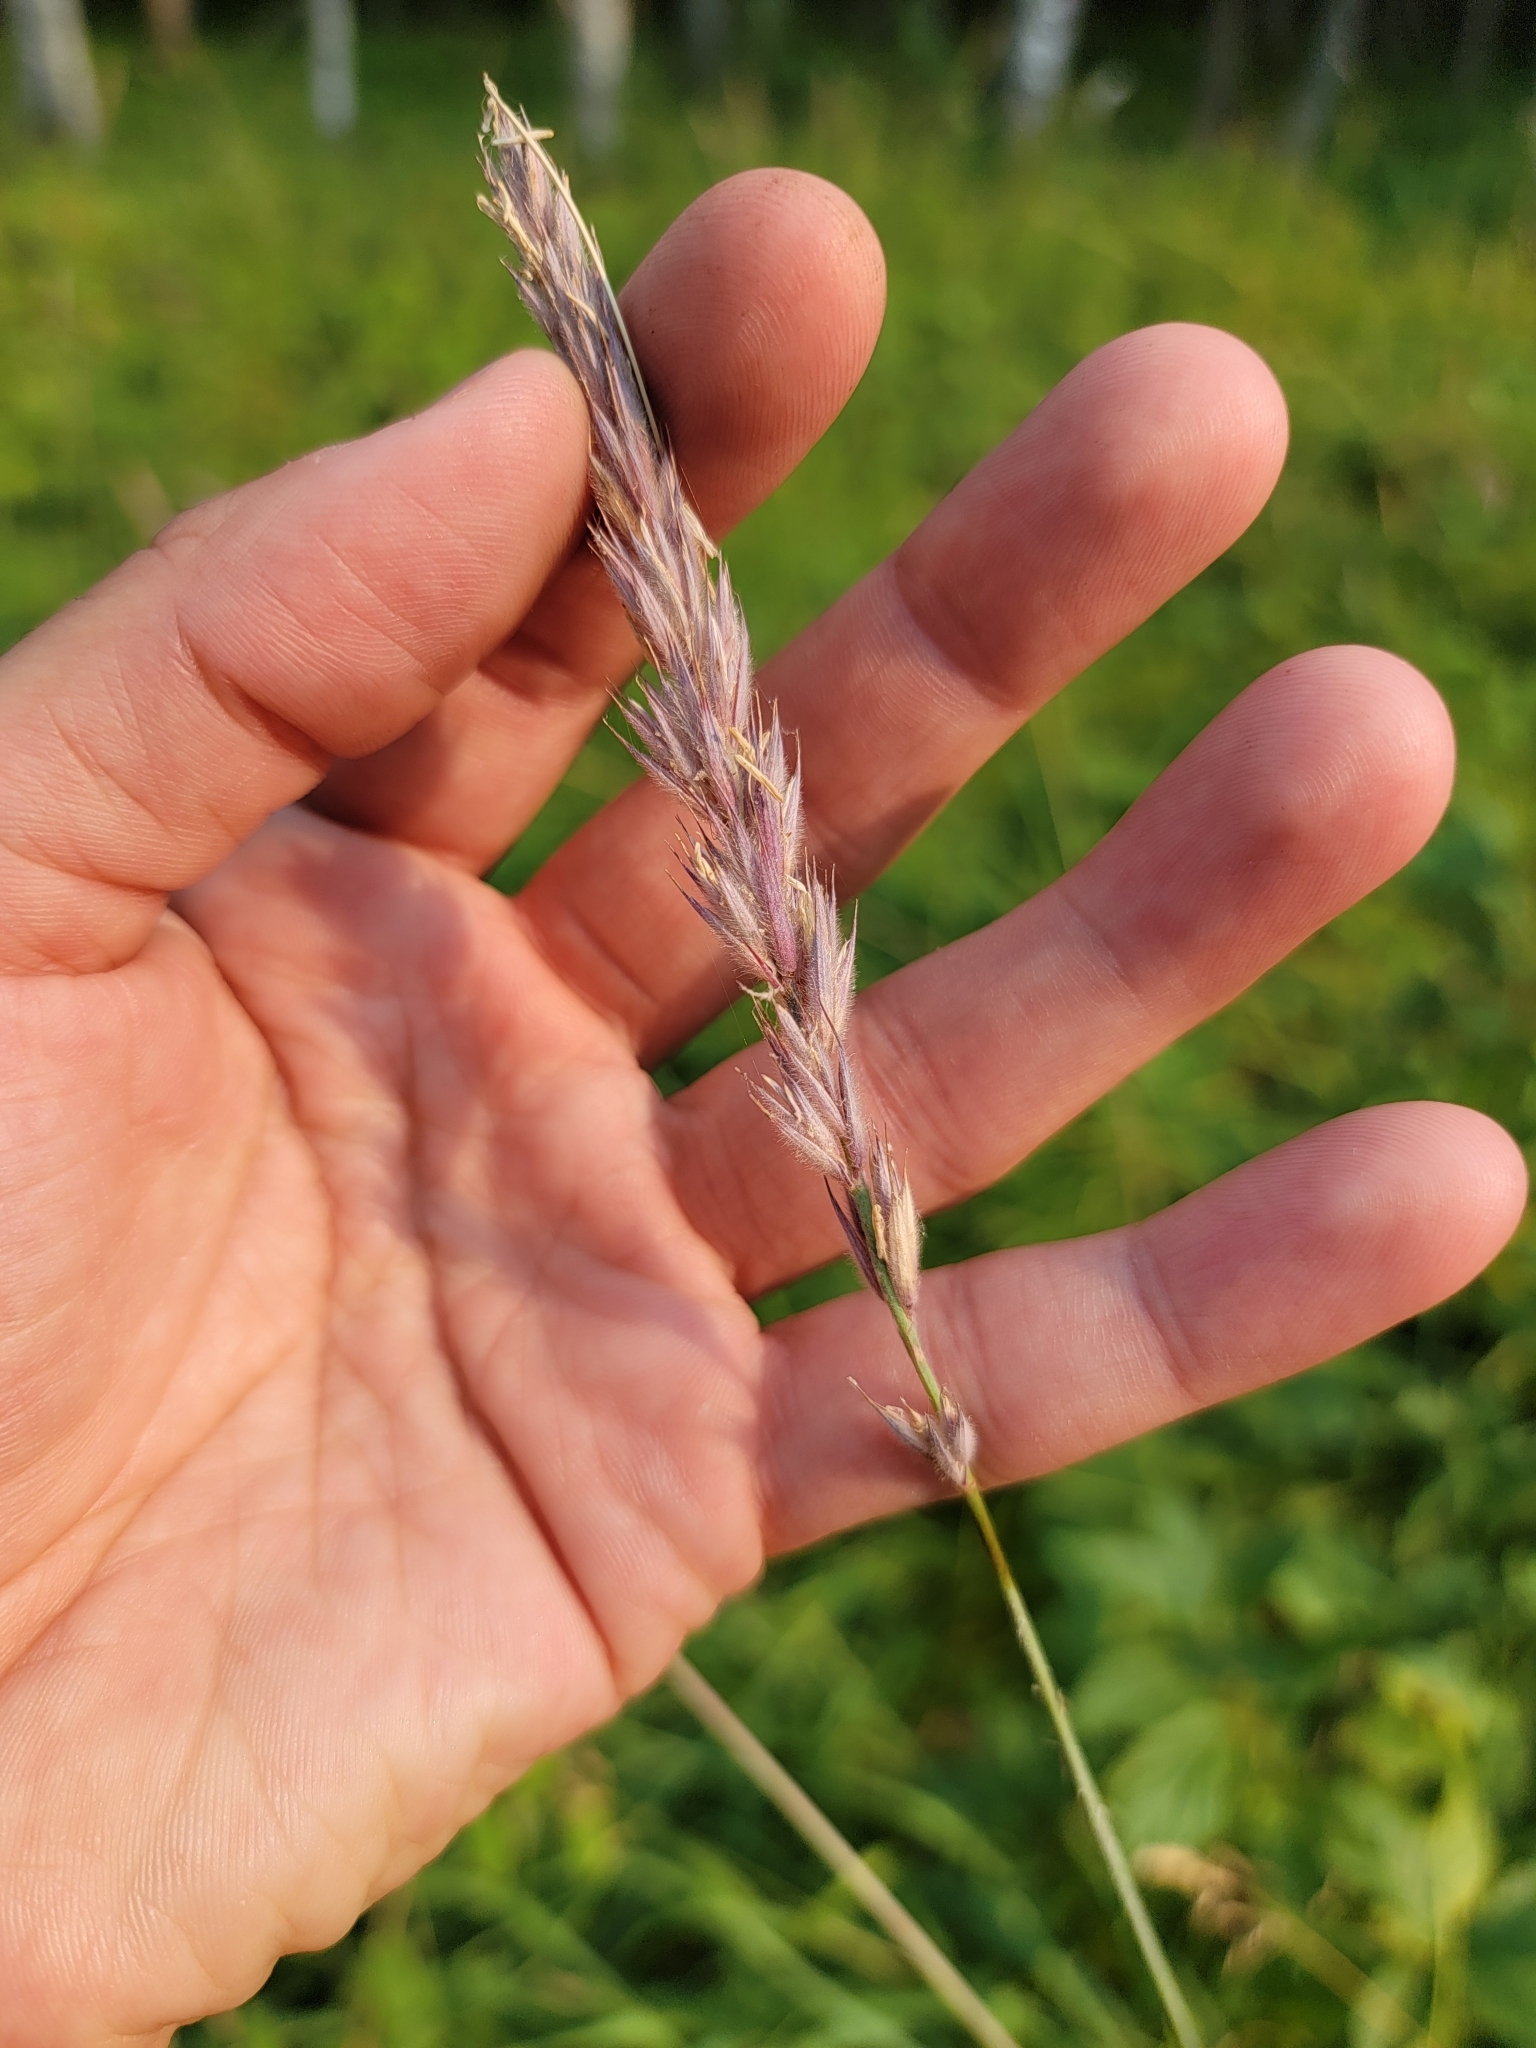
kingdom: Plantae
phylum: Tracheophyta
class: Liliopsida
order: Poales
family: Poaceae
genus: Leymus
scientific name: Leymus innovatus
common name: Boreal wild rye
